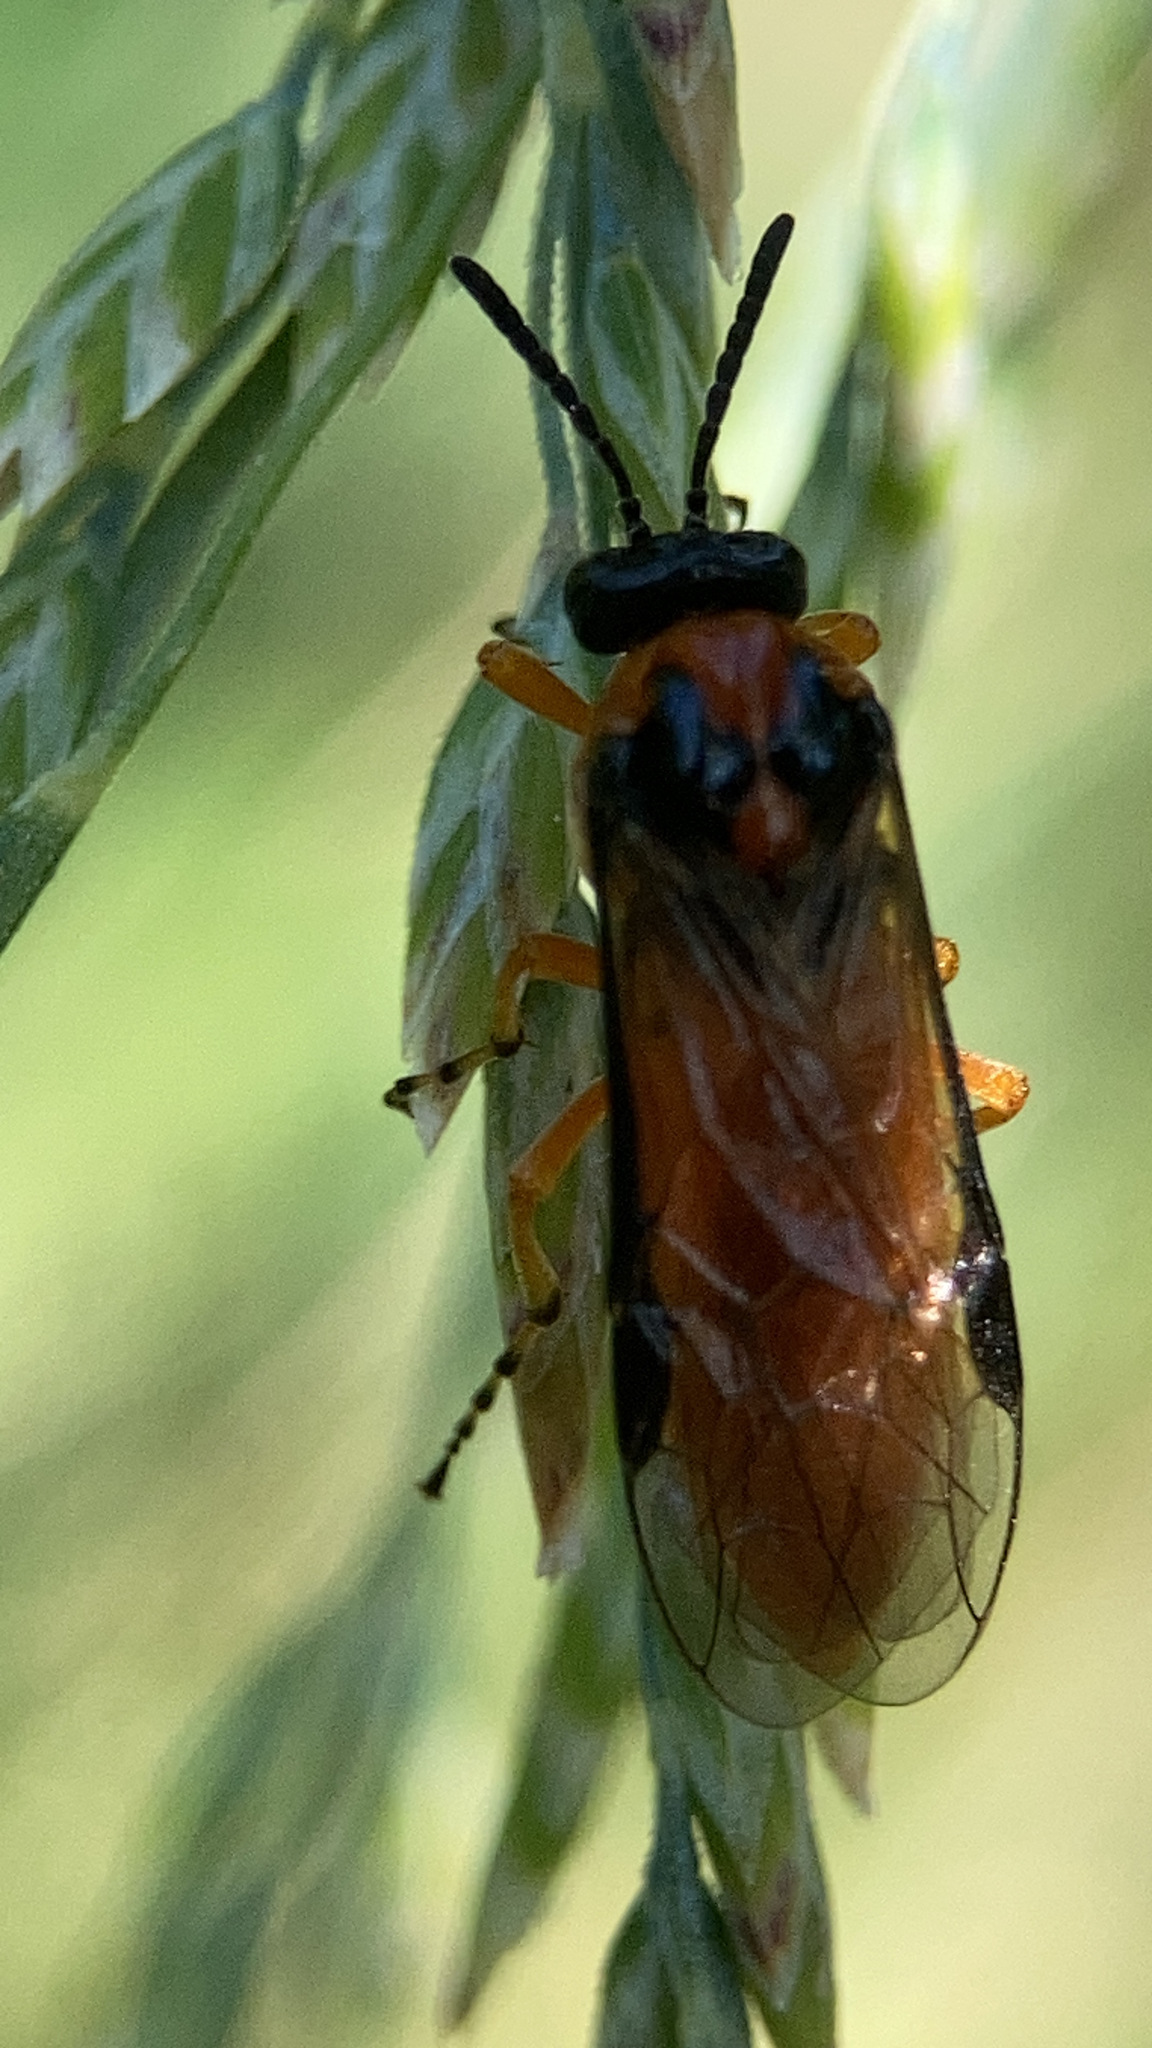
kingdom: Animalia
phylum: Arthropoda
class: Insecta
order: Hymenoptera
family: Tenthredinidae
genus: Athalia
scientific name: Athalia rosae
